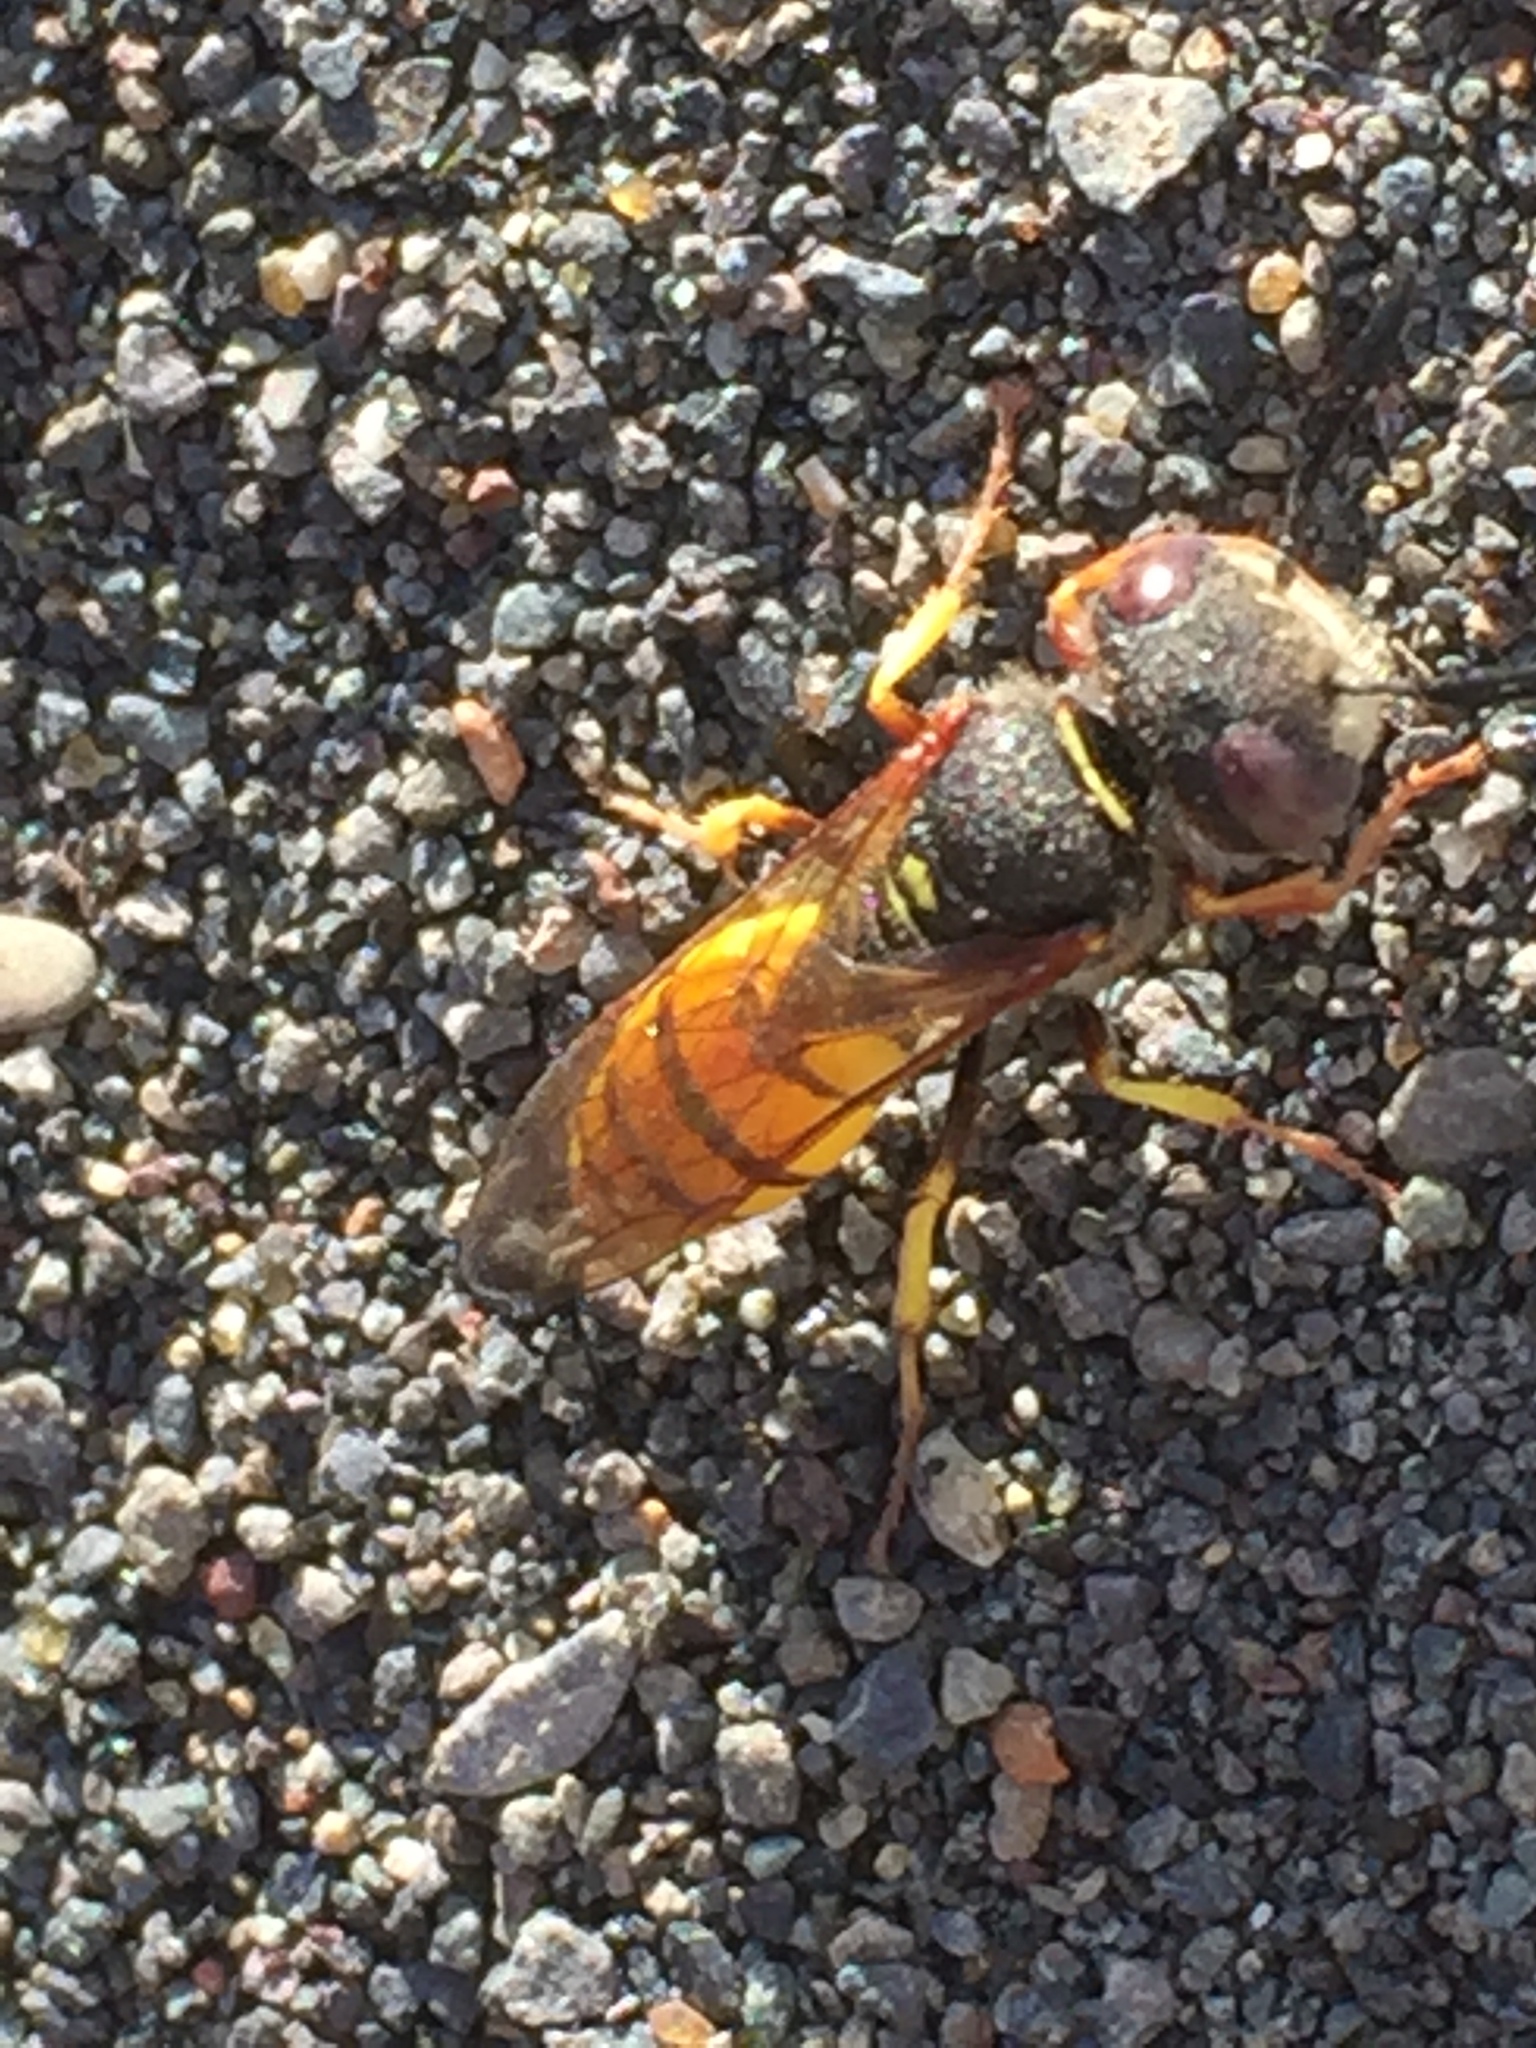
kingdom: Animalia
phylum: Arthropoda
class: Insecta
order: Hymenoptera
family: Crabronidae
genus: Philanthus
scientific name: Philanthus triangulum
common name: Bee wolf
